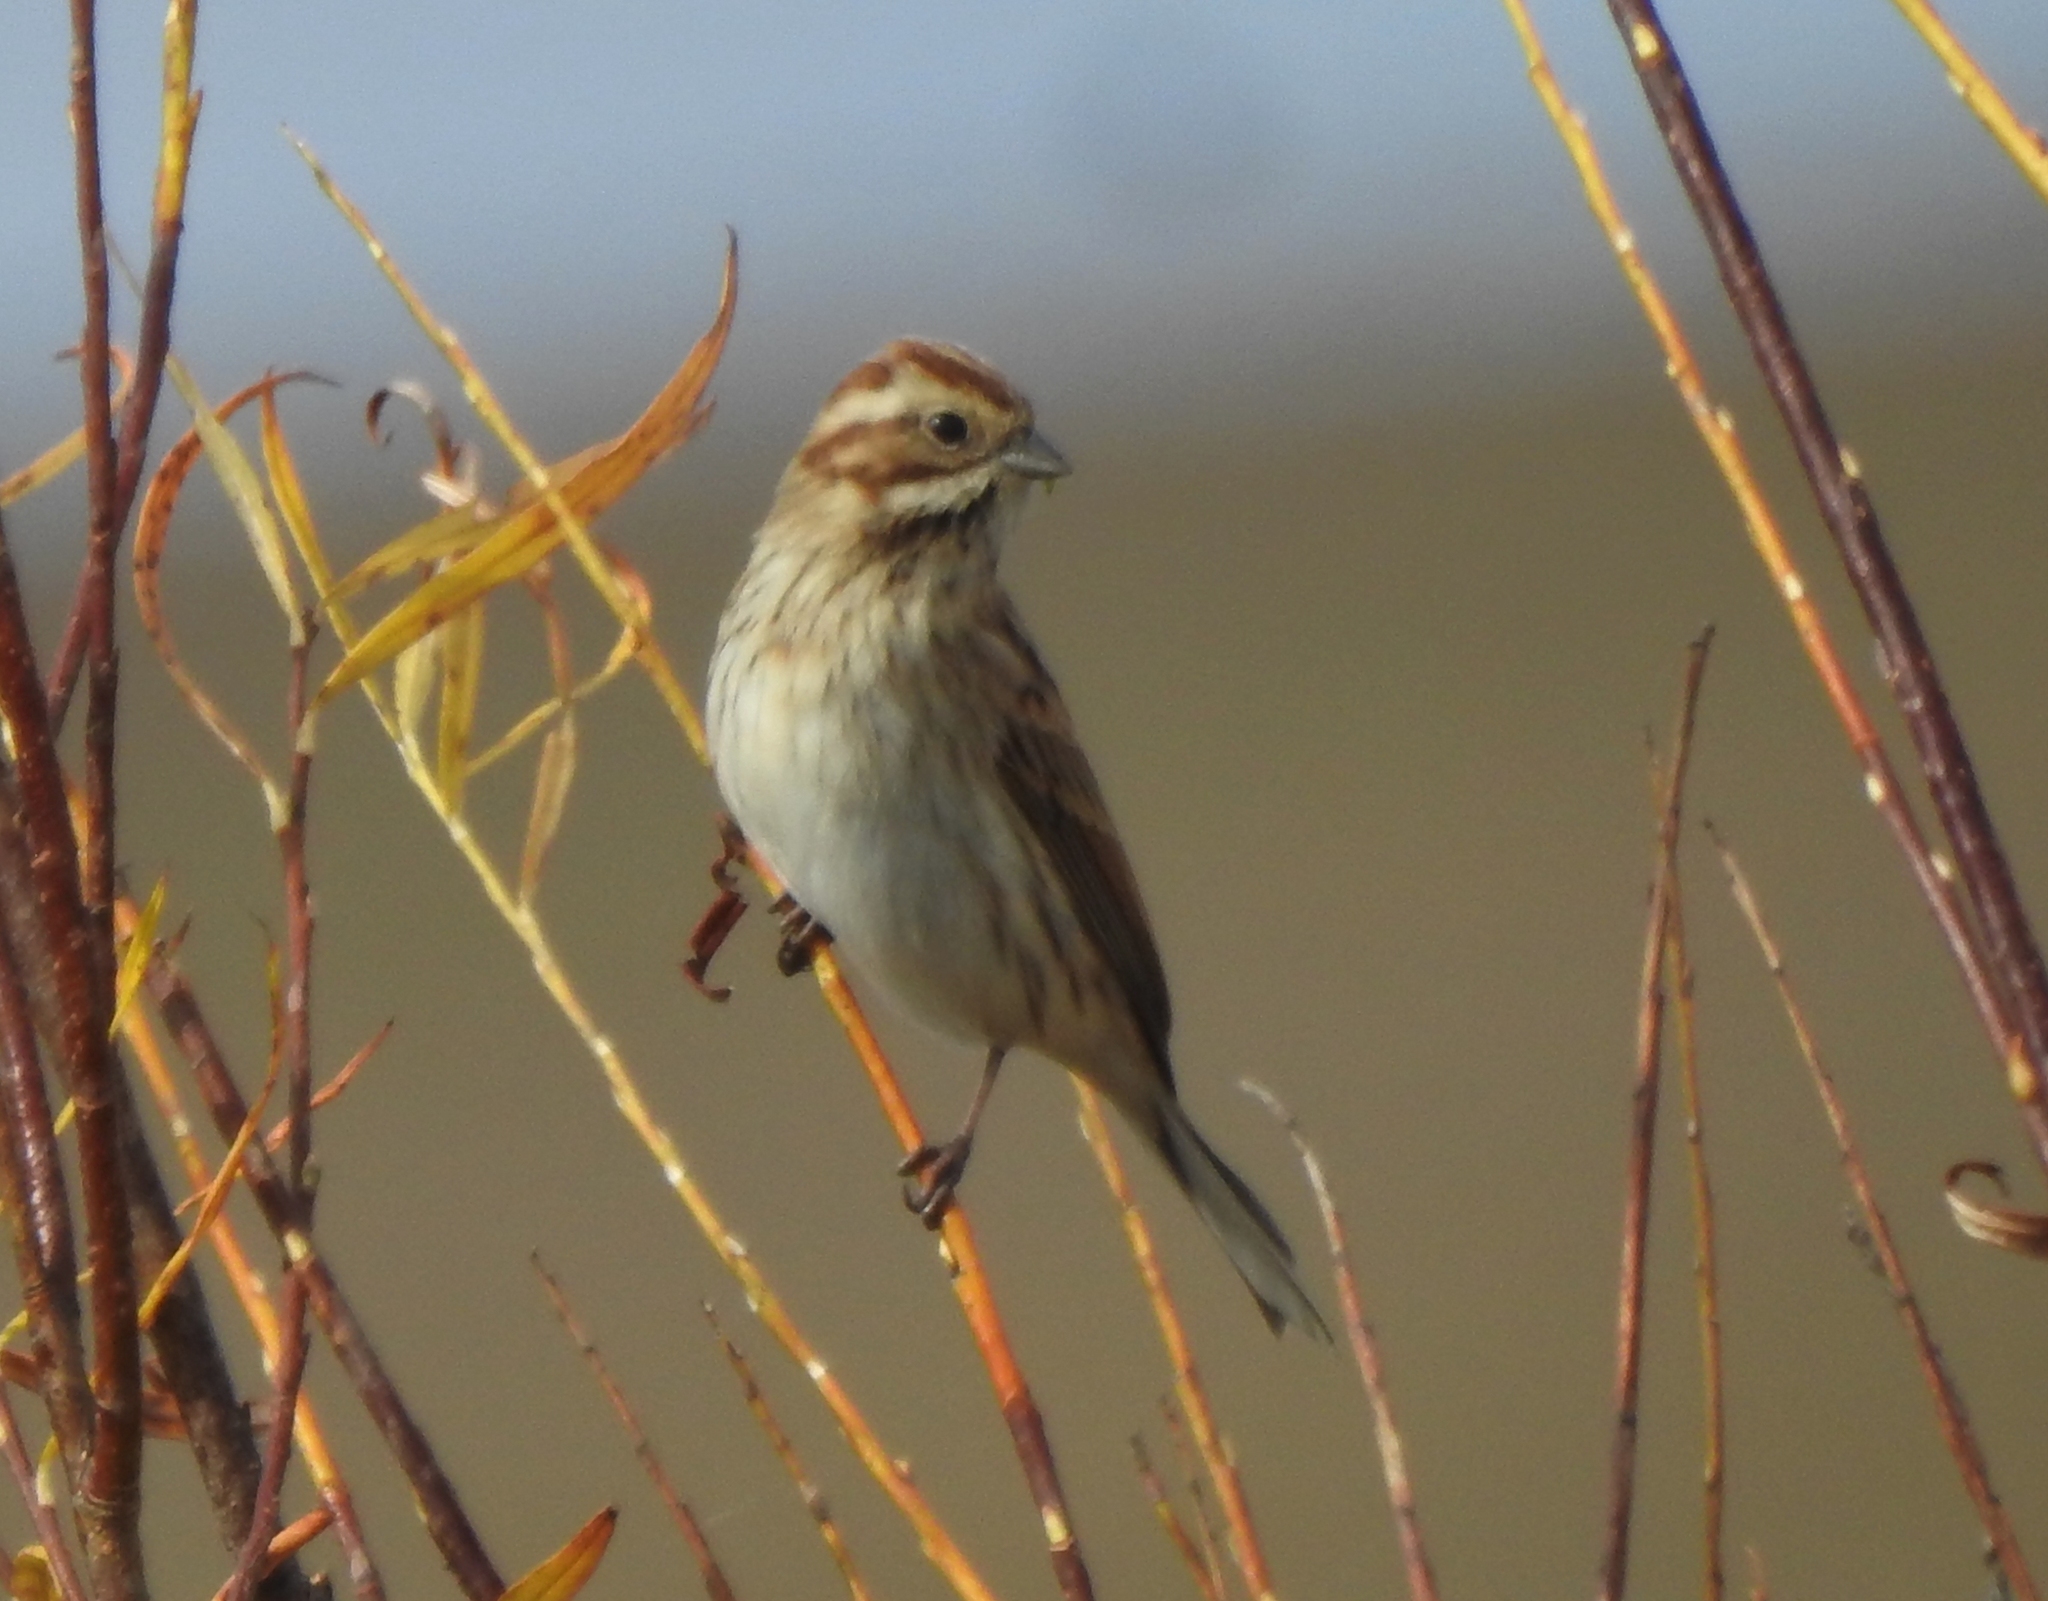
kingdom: Animalia
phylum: Chordata
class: Aves
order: Passeriformes
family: Emberizidae
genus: Emberiza
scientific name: Emberiza schoeniclus
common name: Reed bunting
